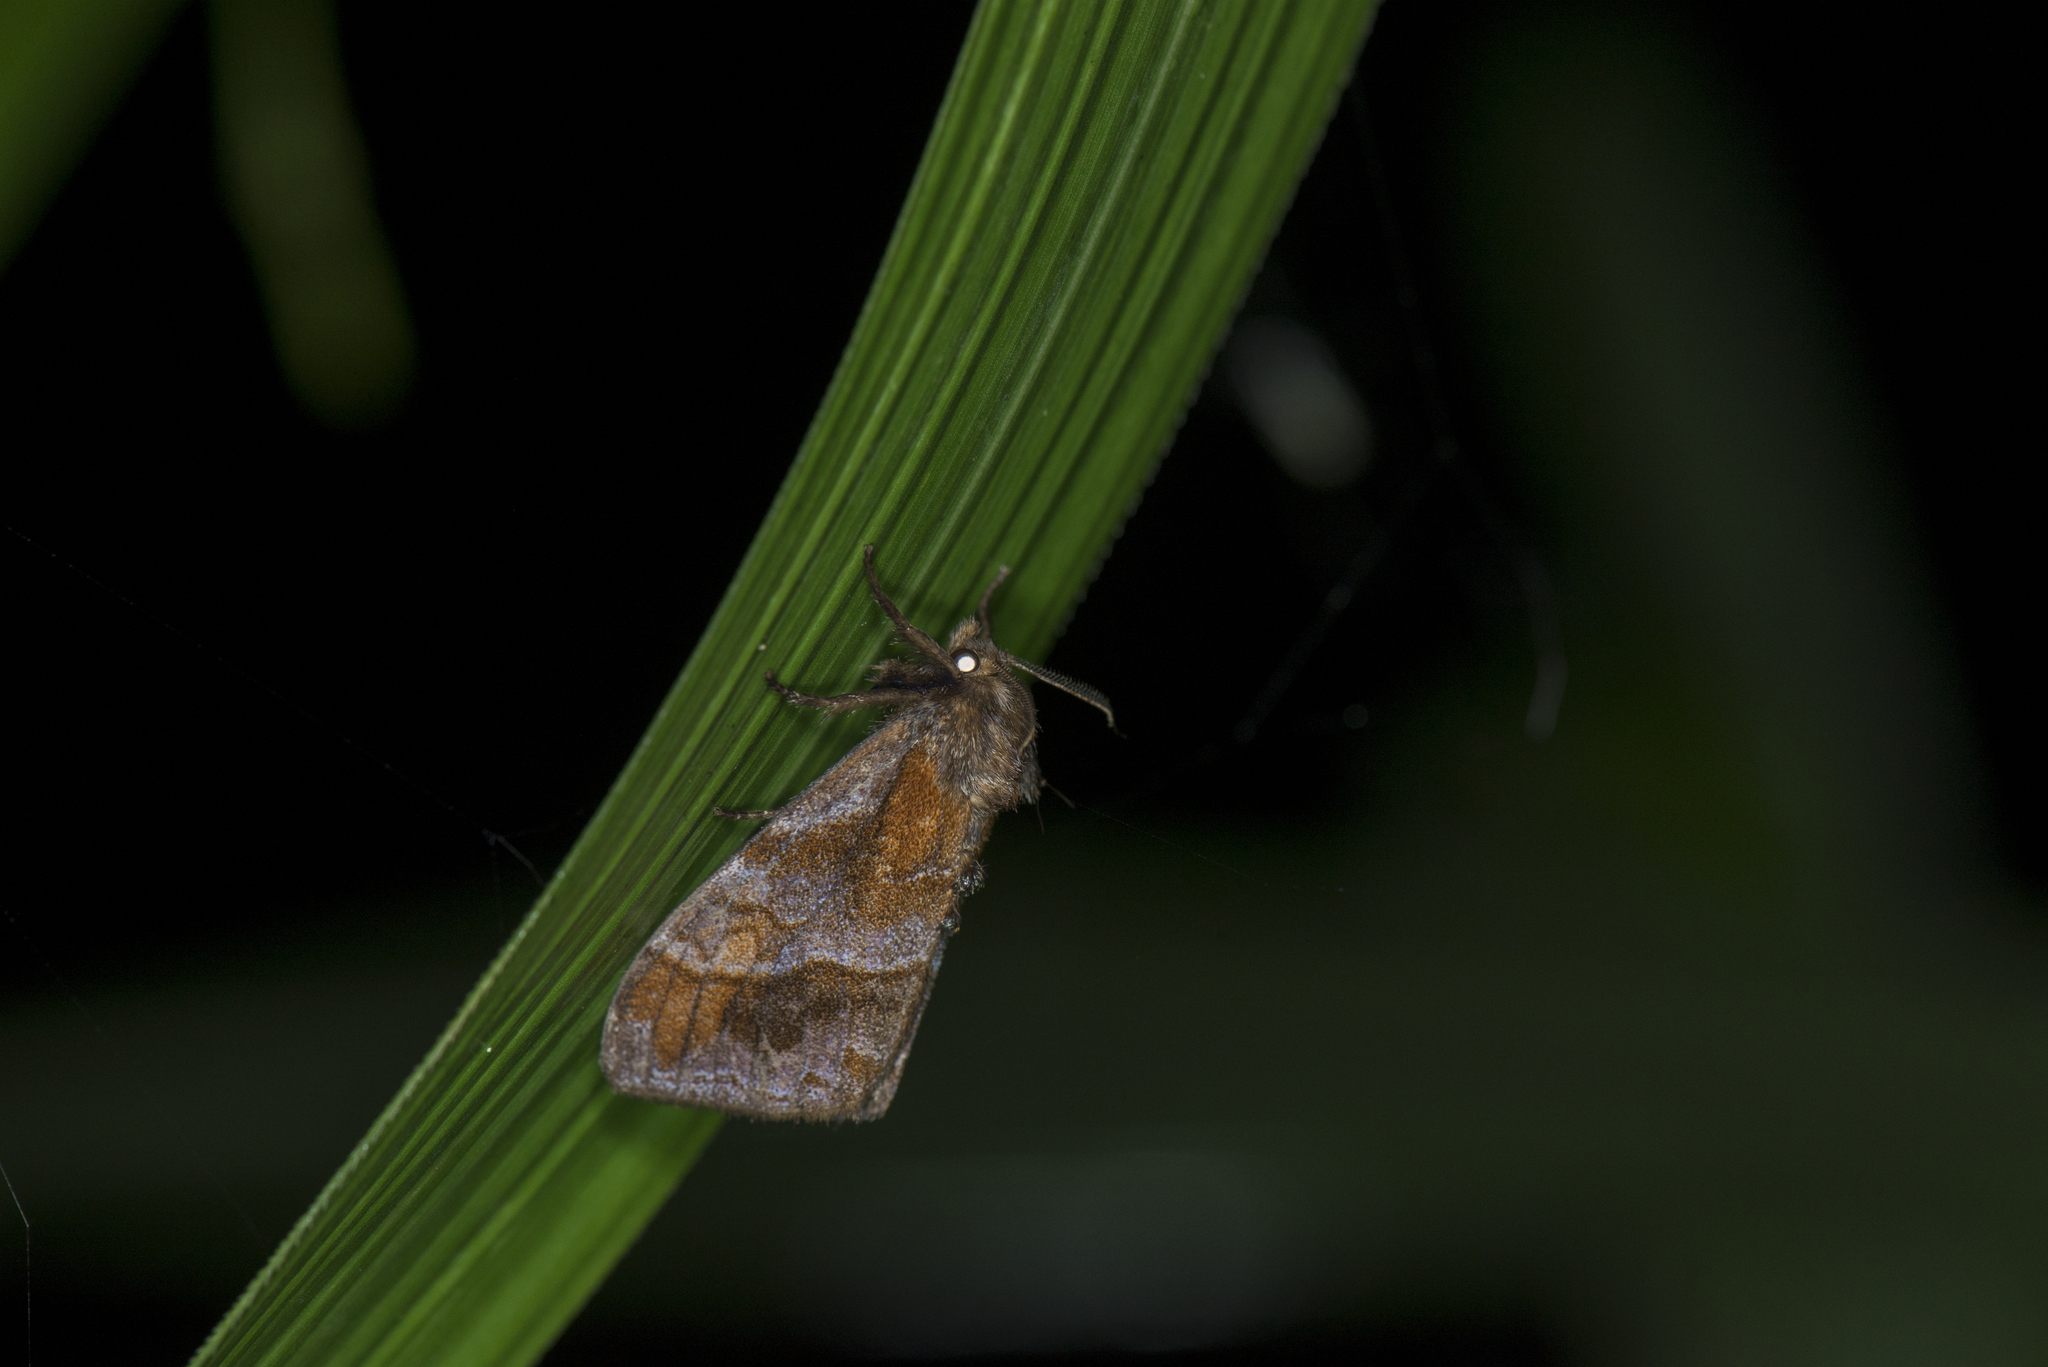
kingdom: Animalia
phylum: Arthropoda
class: Insecta
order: Lepidoptera
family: Erebidae
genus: Cifuna
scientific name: Cifuna locuples
